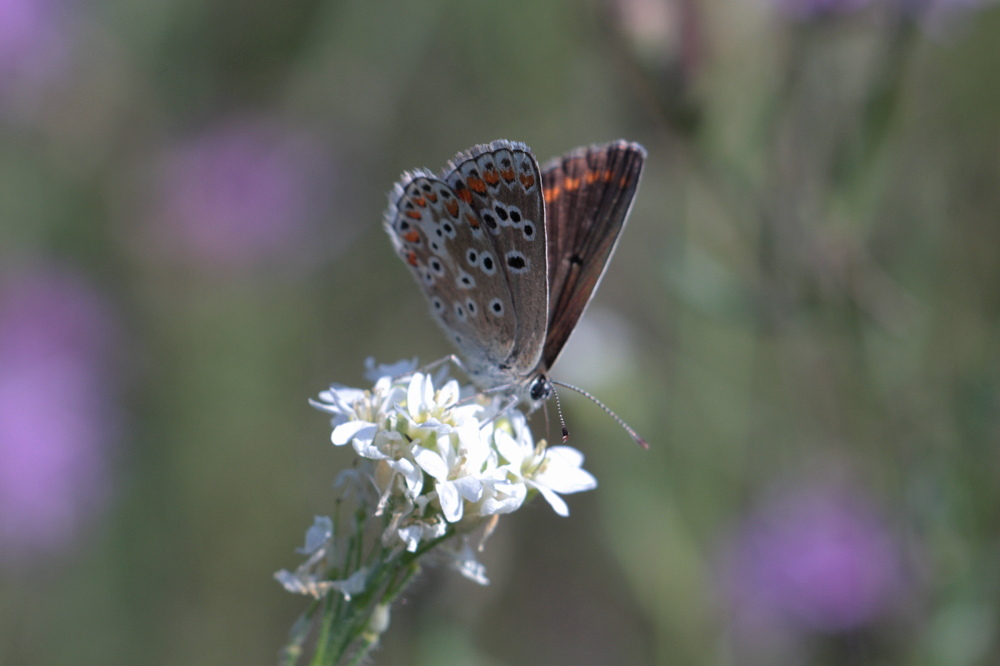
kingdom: Animalia
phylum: Arthropoda
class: Insecta
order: Lepidoptera
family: Lycaenidae
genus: Aricia
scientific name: Aricia agestis
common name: Brown argus
